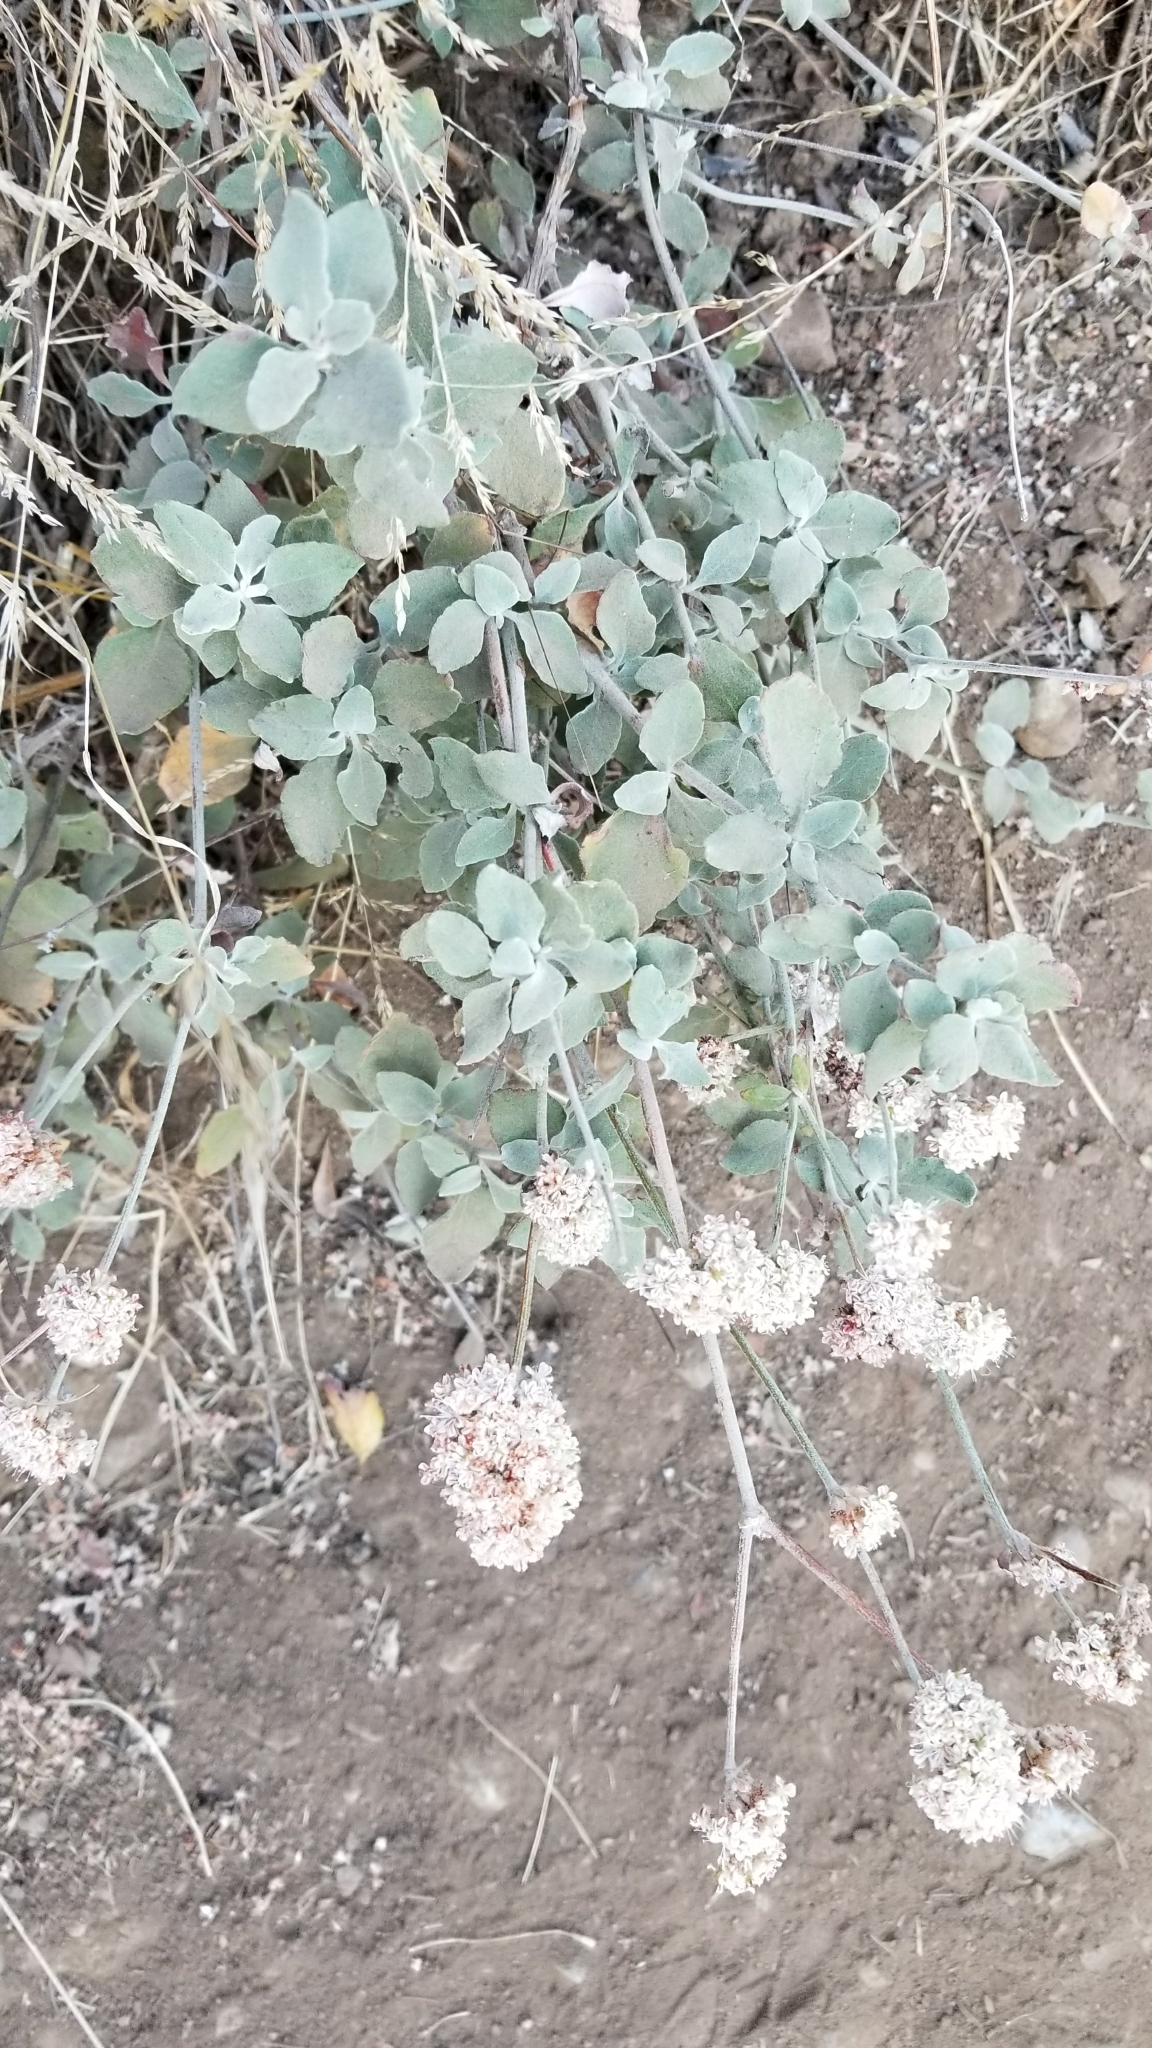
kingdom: Plantae
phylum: Tracheophyta
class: Magnoliopsida
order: Caryophyllales
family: Polygonaceae
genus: Eriogonum
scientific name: Eriogonum cinereum
